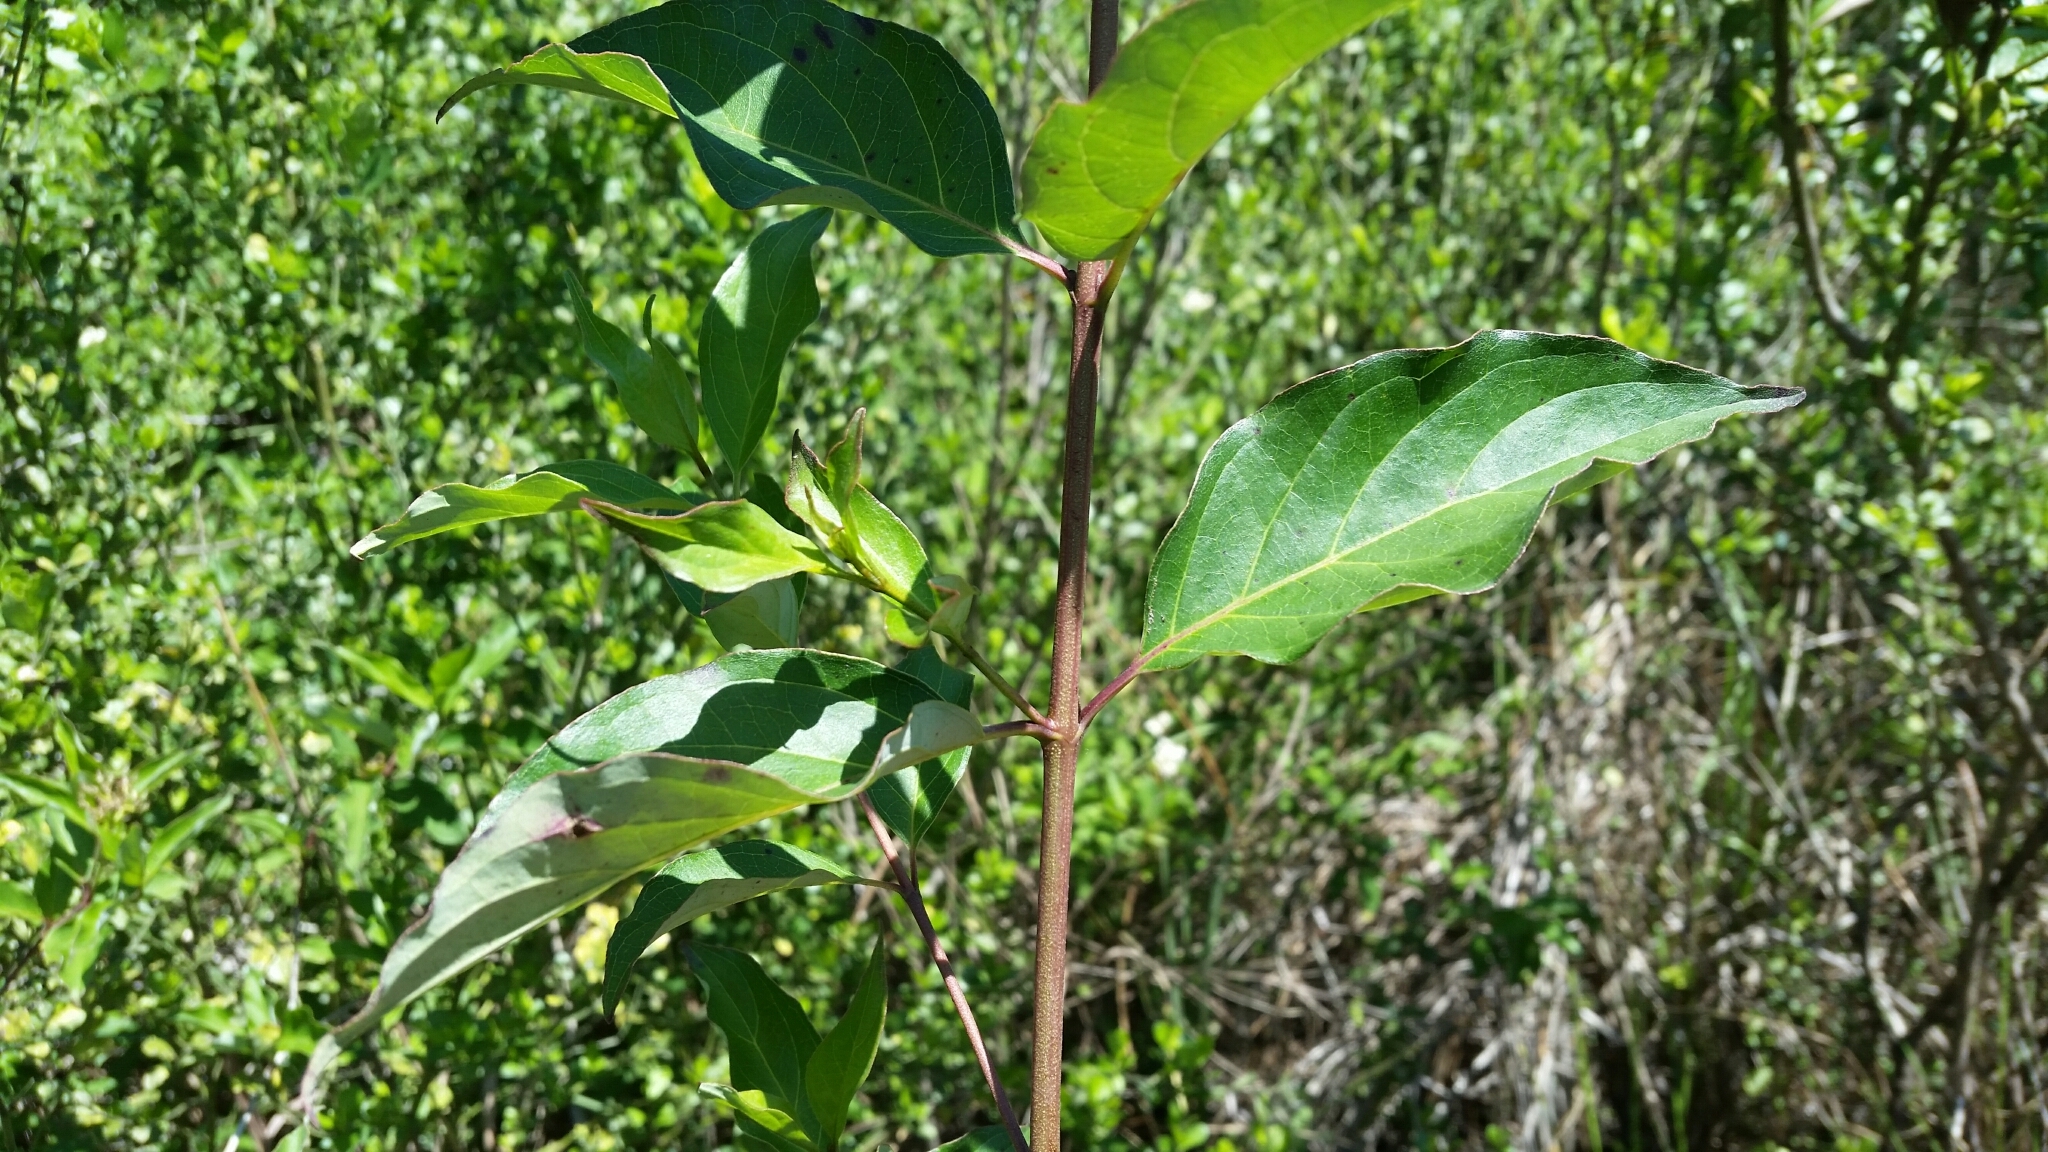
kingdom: Plantae
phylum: Tracheophyta
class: Magnoliopsida
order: Cornales
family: Cornaceae
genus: Cornus
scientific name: Cornus foemina
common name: Swamp dogwood
